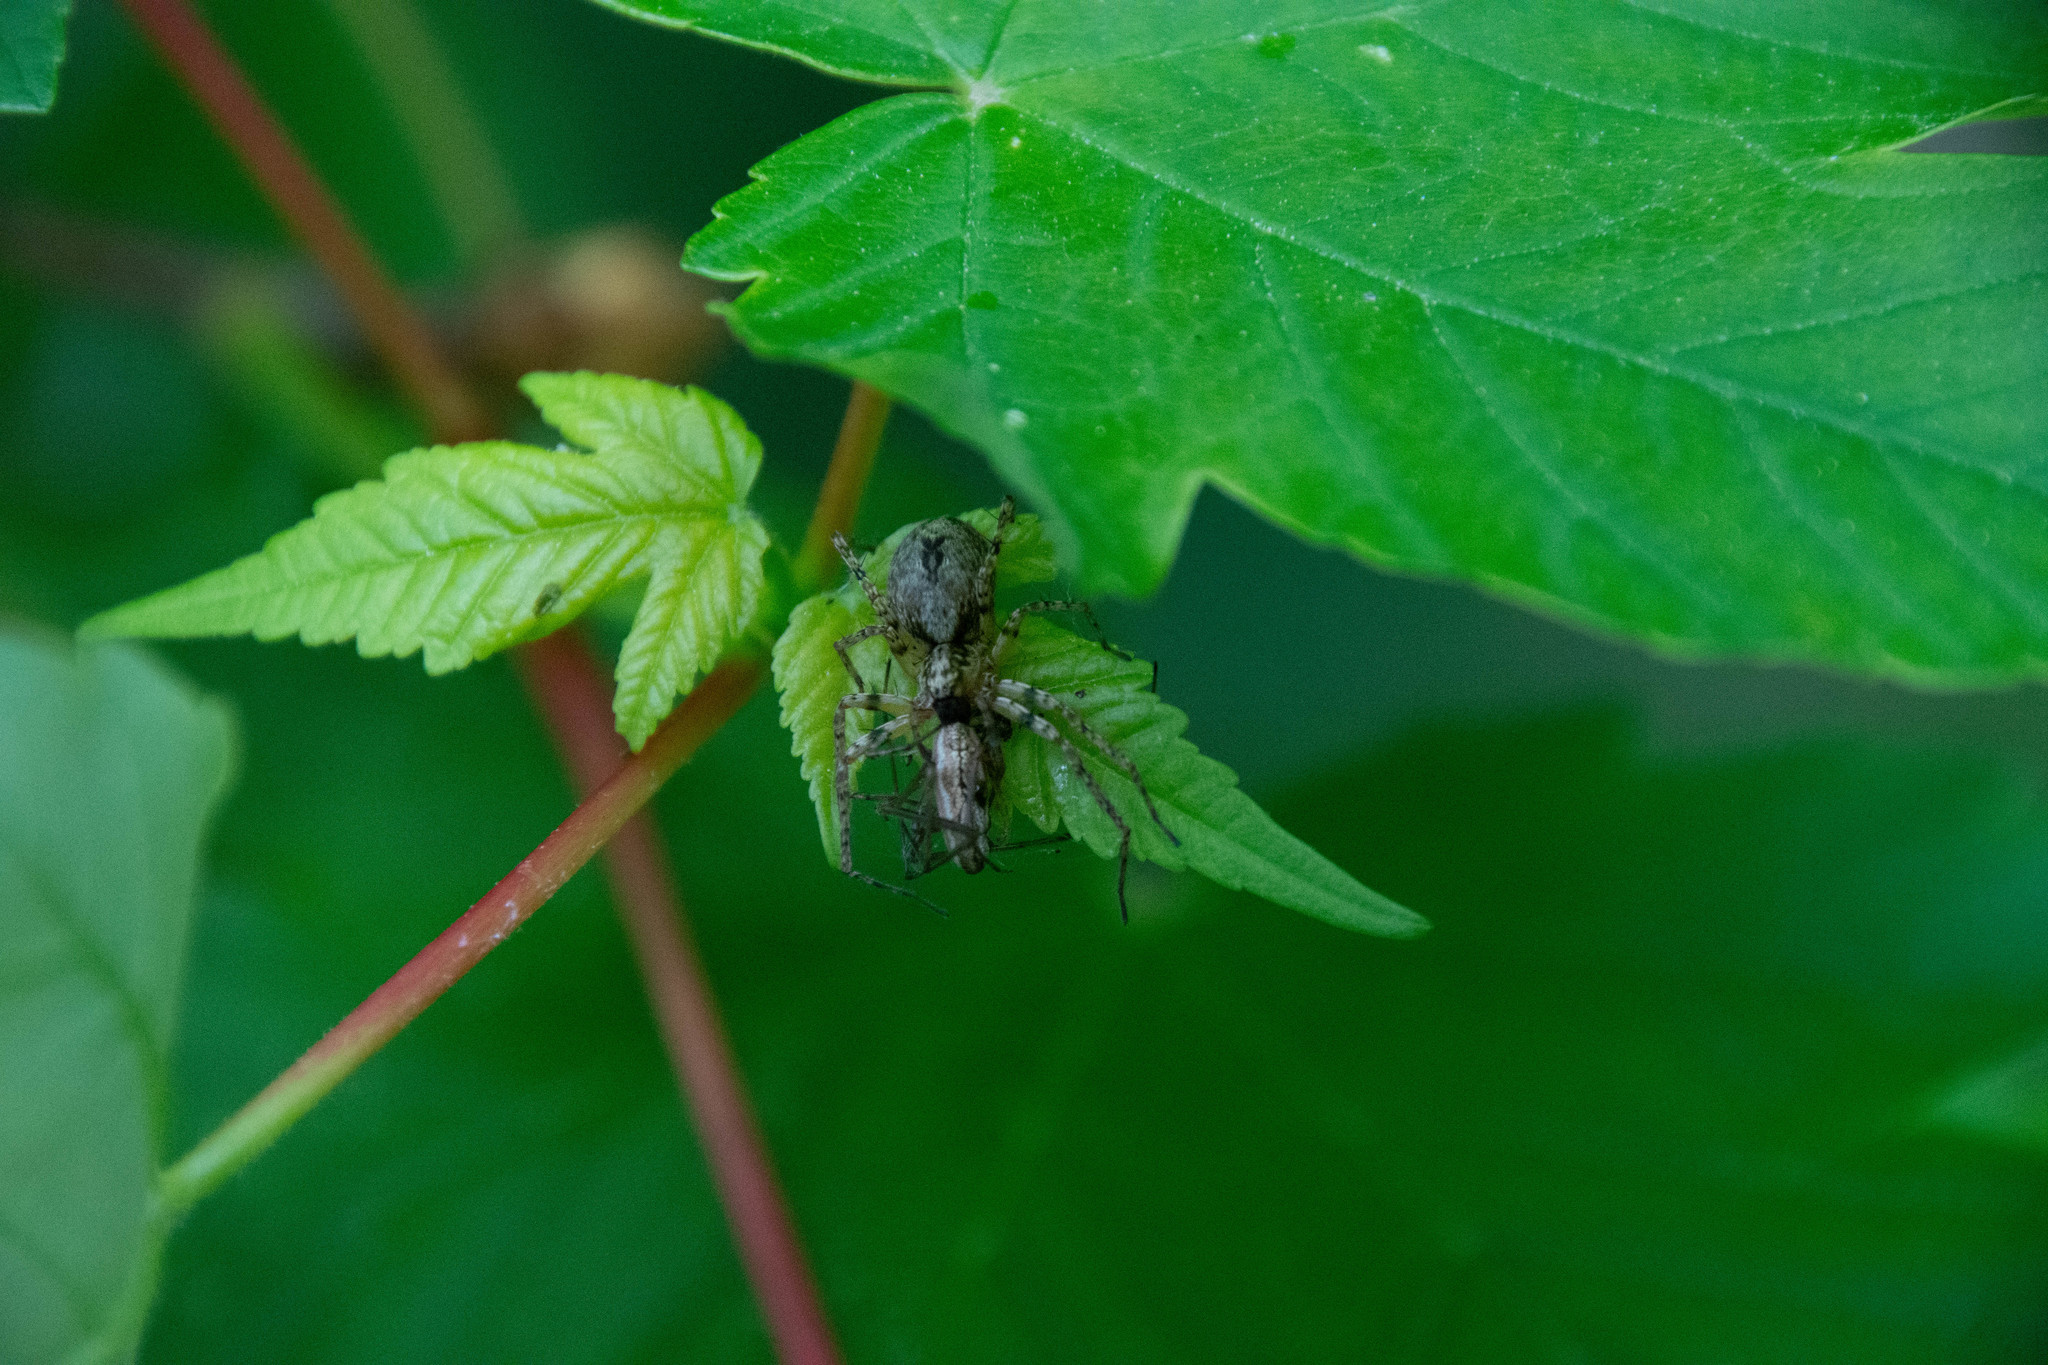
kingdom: Animalia
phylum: Arthropoda
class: Arachnida
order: Araneae
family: Anyphaenidae
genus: Anyphaena
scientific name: Anyphaena accentuata
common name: Buzzing spider
